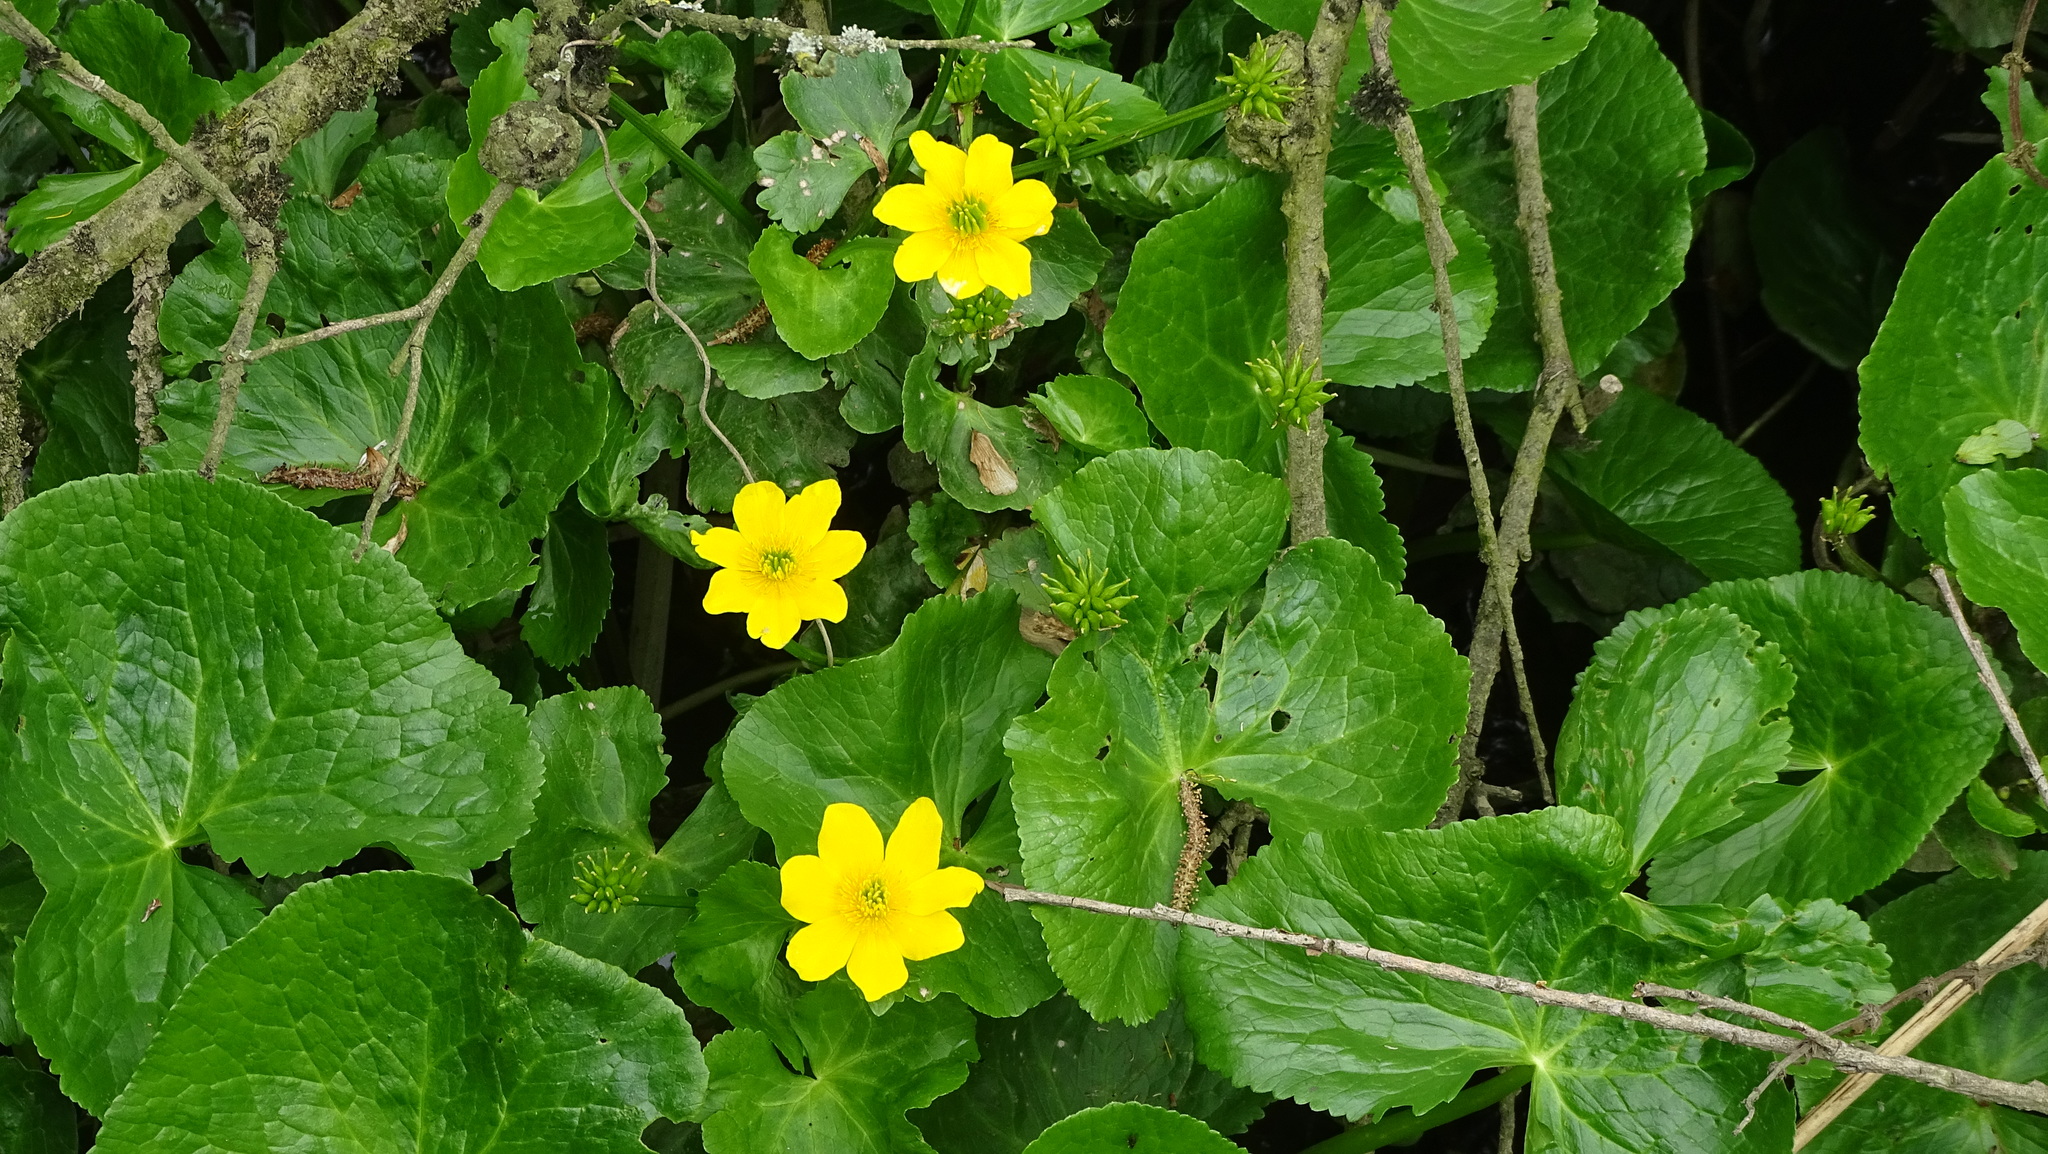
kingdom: Plantae
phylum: Tracheophyta
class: Magnoliopsida
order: Ranunculales
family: Ranunculaceae
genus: Caltha
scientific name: Caltha palustris
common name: Marsh marigold
